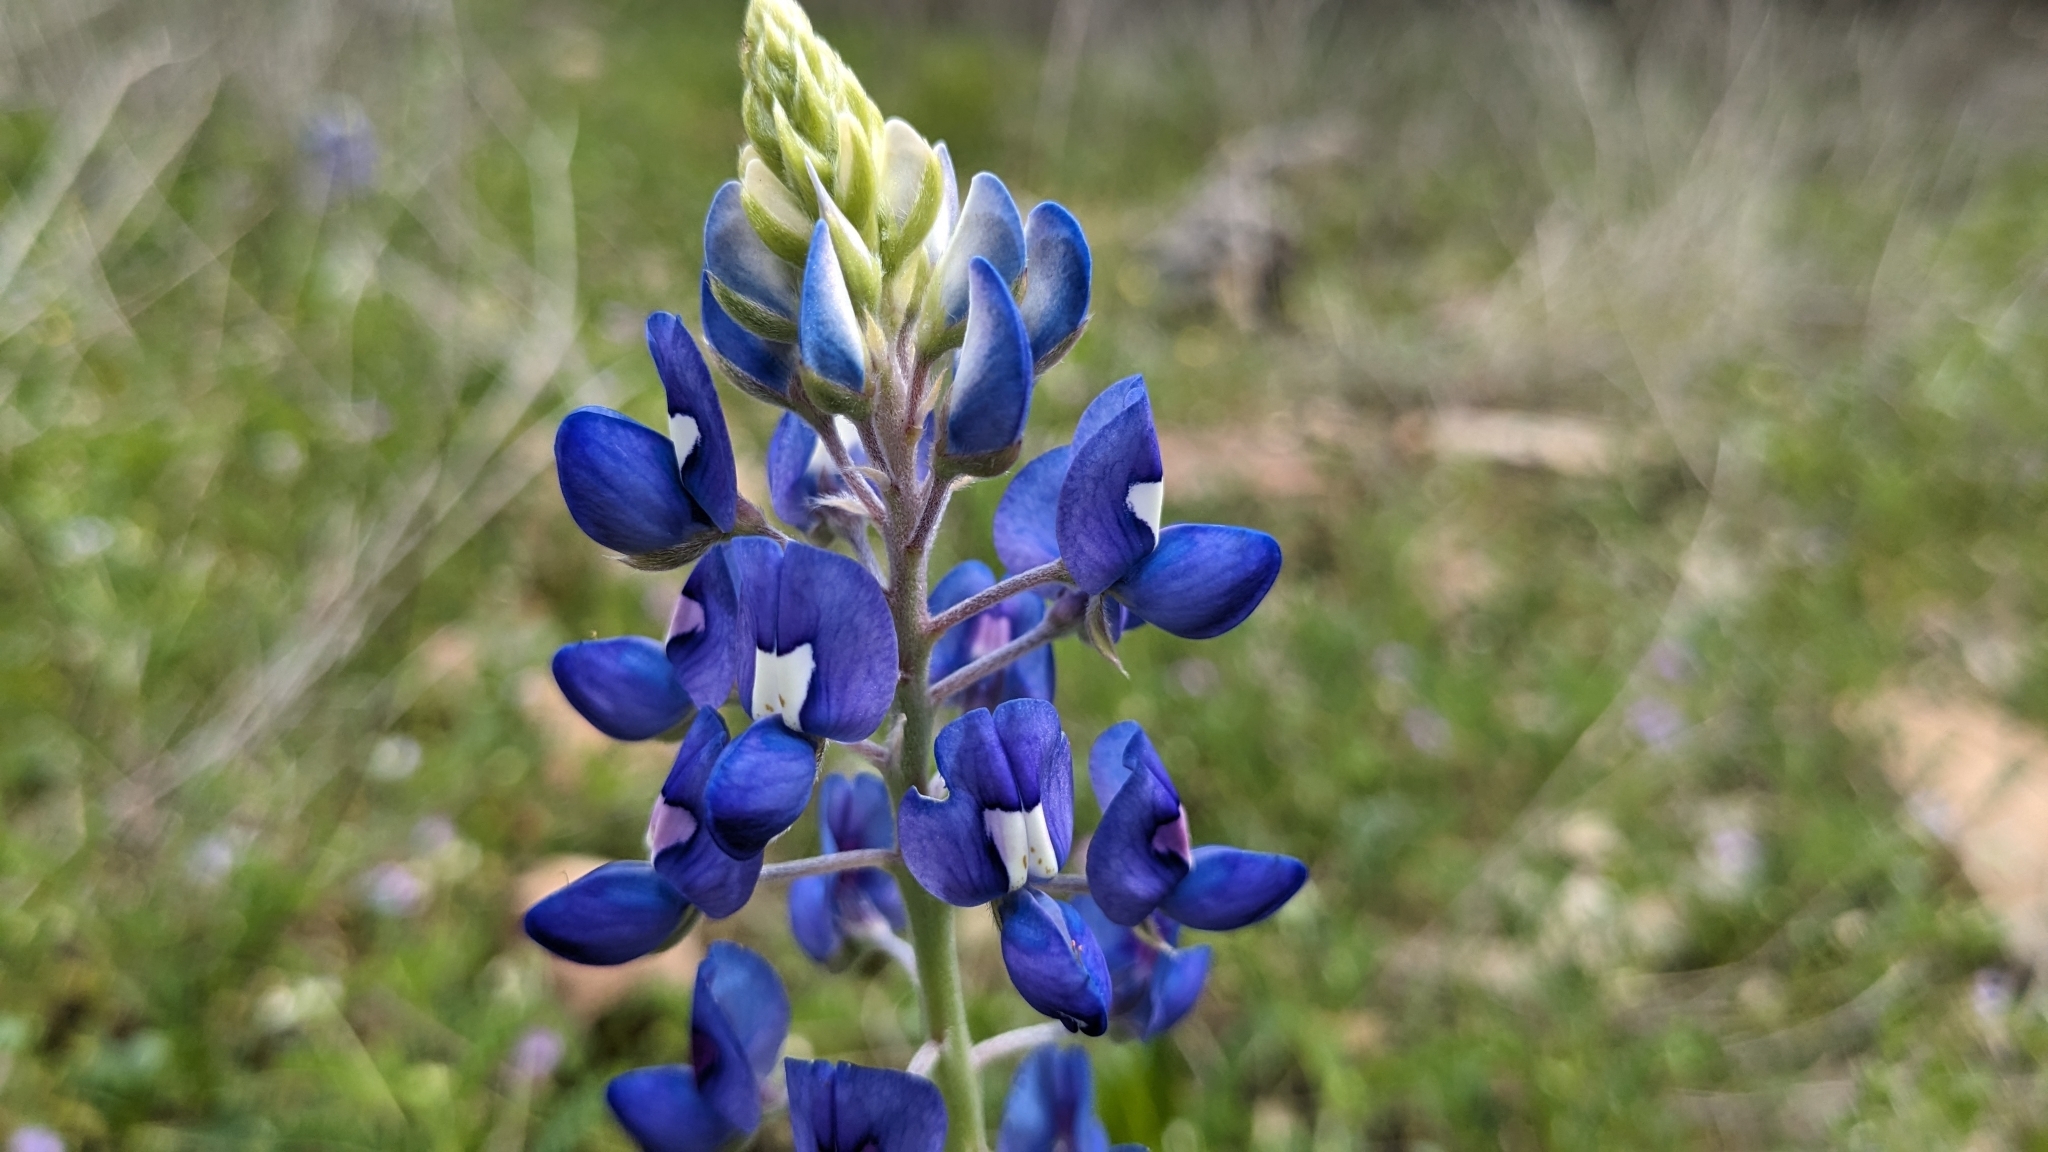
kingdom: Plantae
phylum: Tracheophyta
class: Magnoliopsida
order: Fabales
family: Fabaceae
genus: Lupinus
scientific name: Lupinus texensis
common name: Texas bluebonnet
